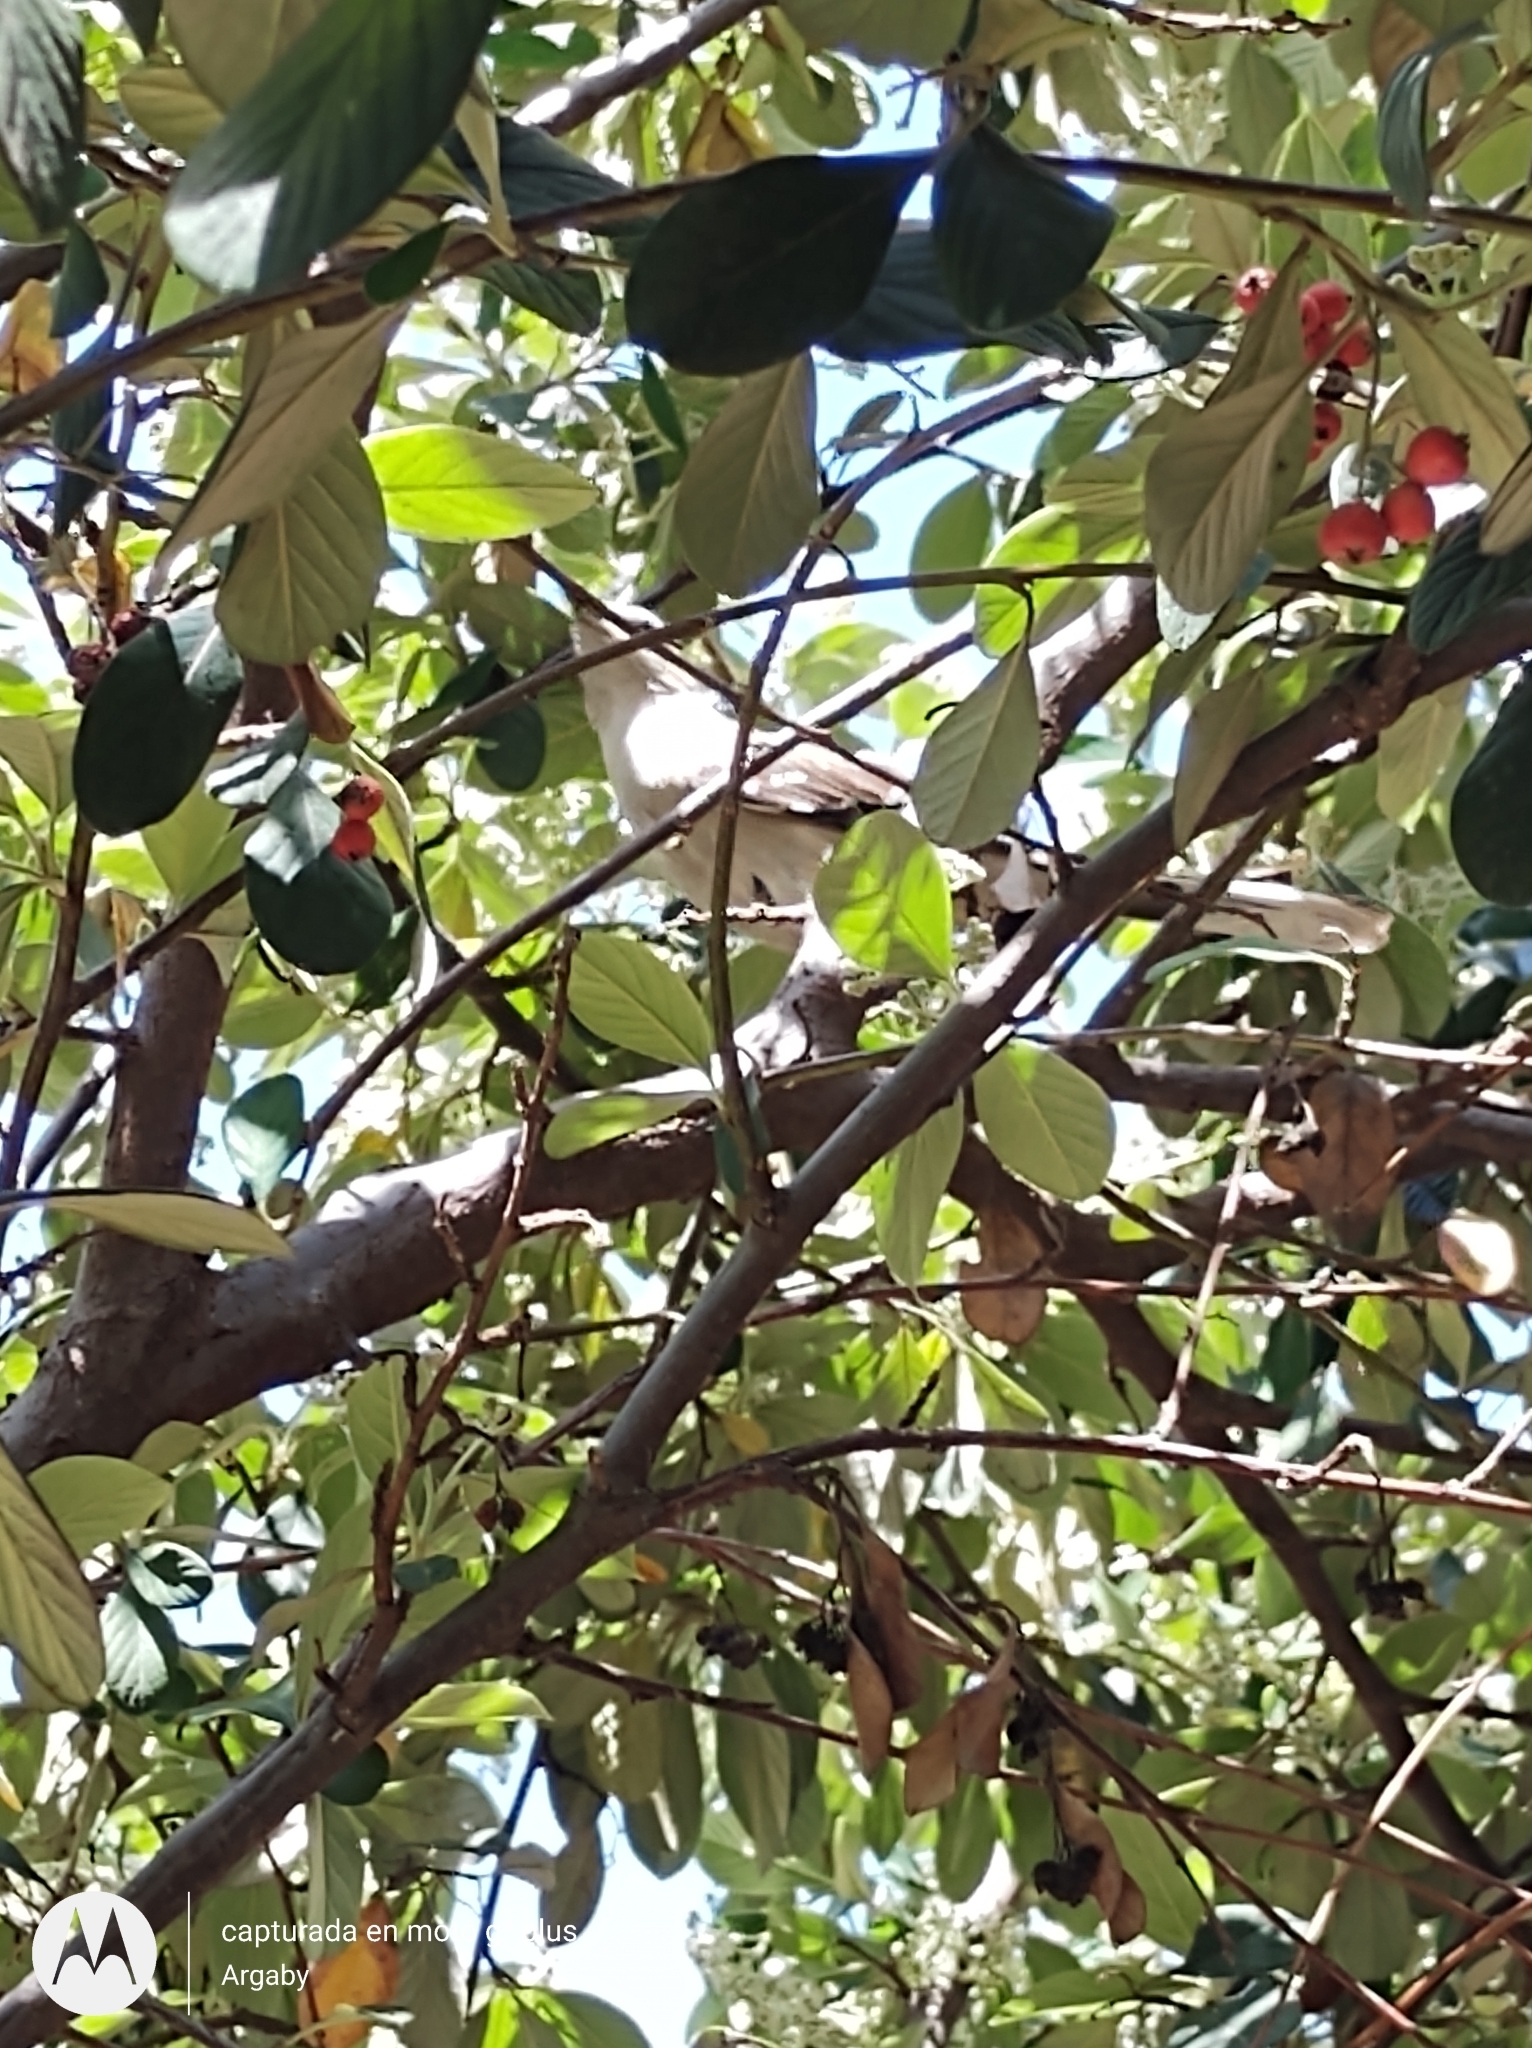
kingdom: Animalia
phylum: Chordata
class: Aves
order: Passeriformes
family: Mimidae
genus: Mimus
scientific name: Mimus saturninus
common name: Chalk-browed mockingbird
